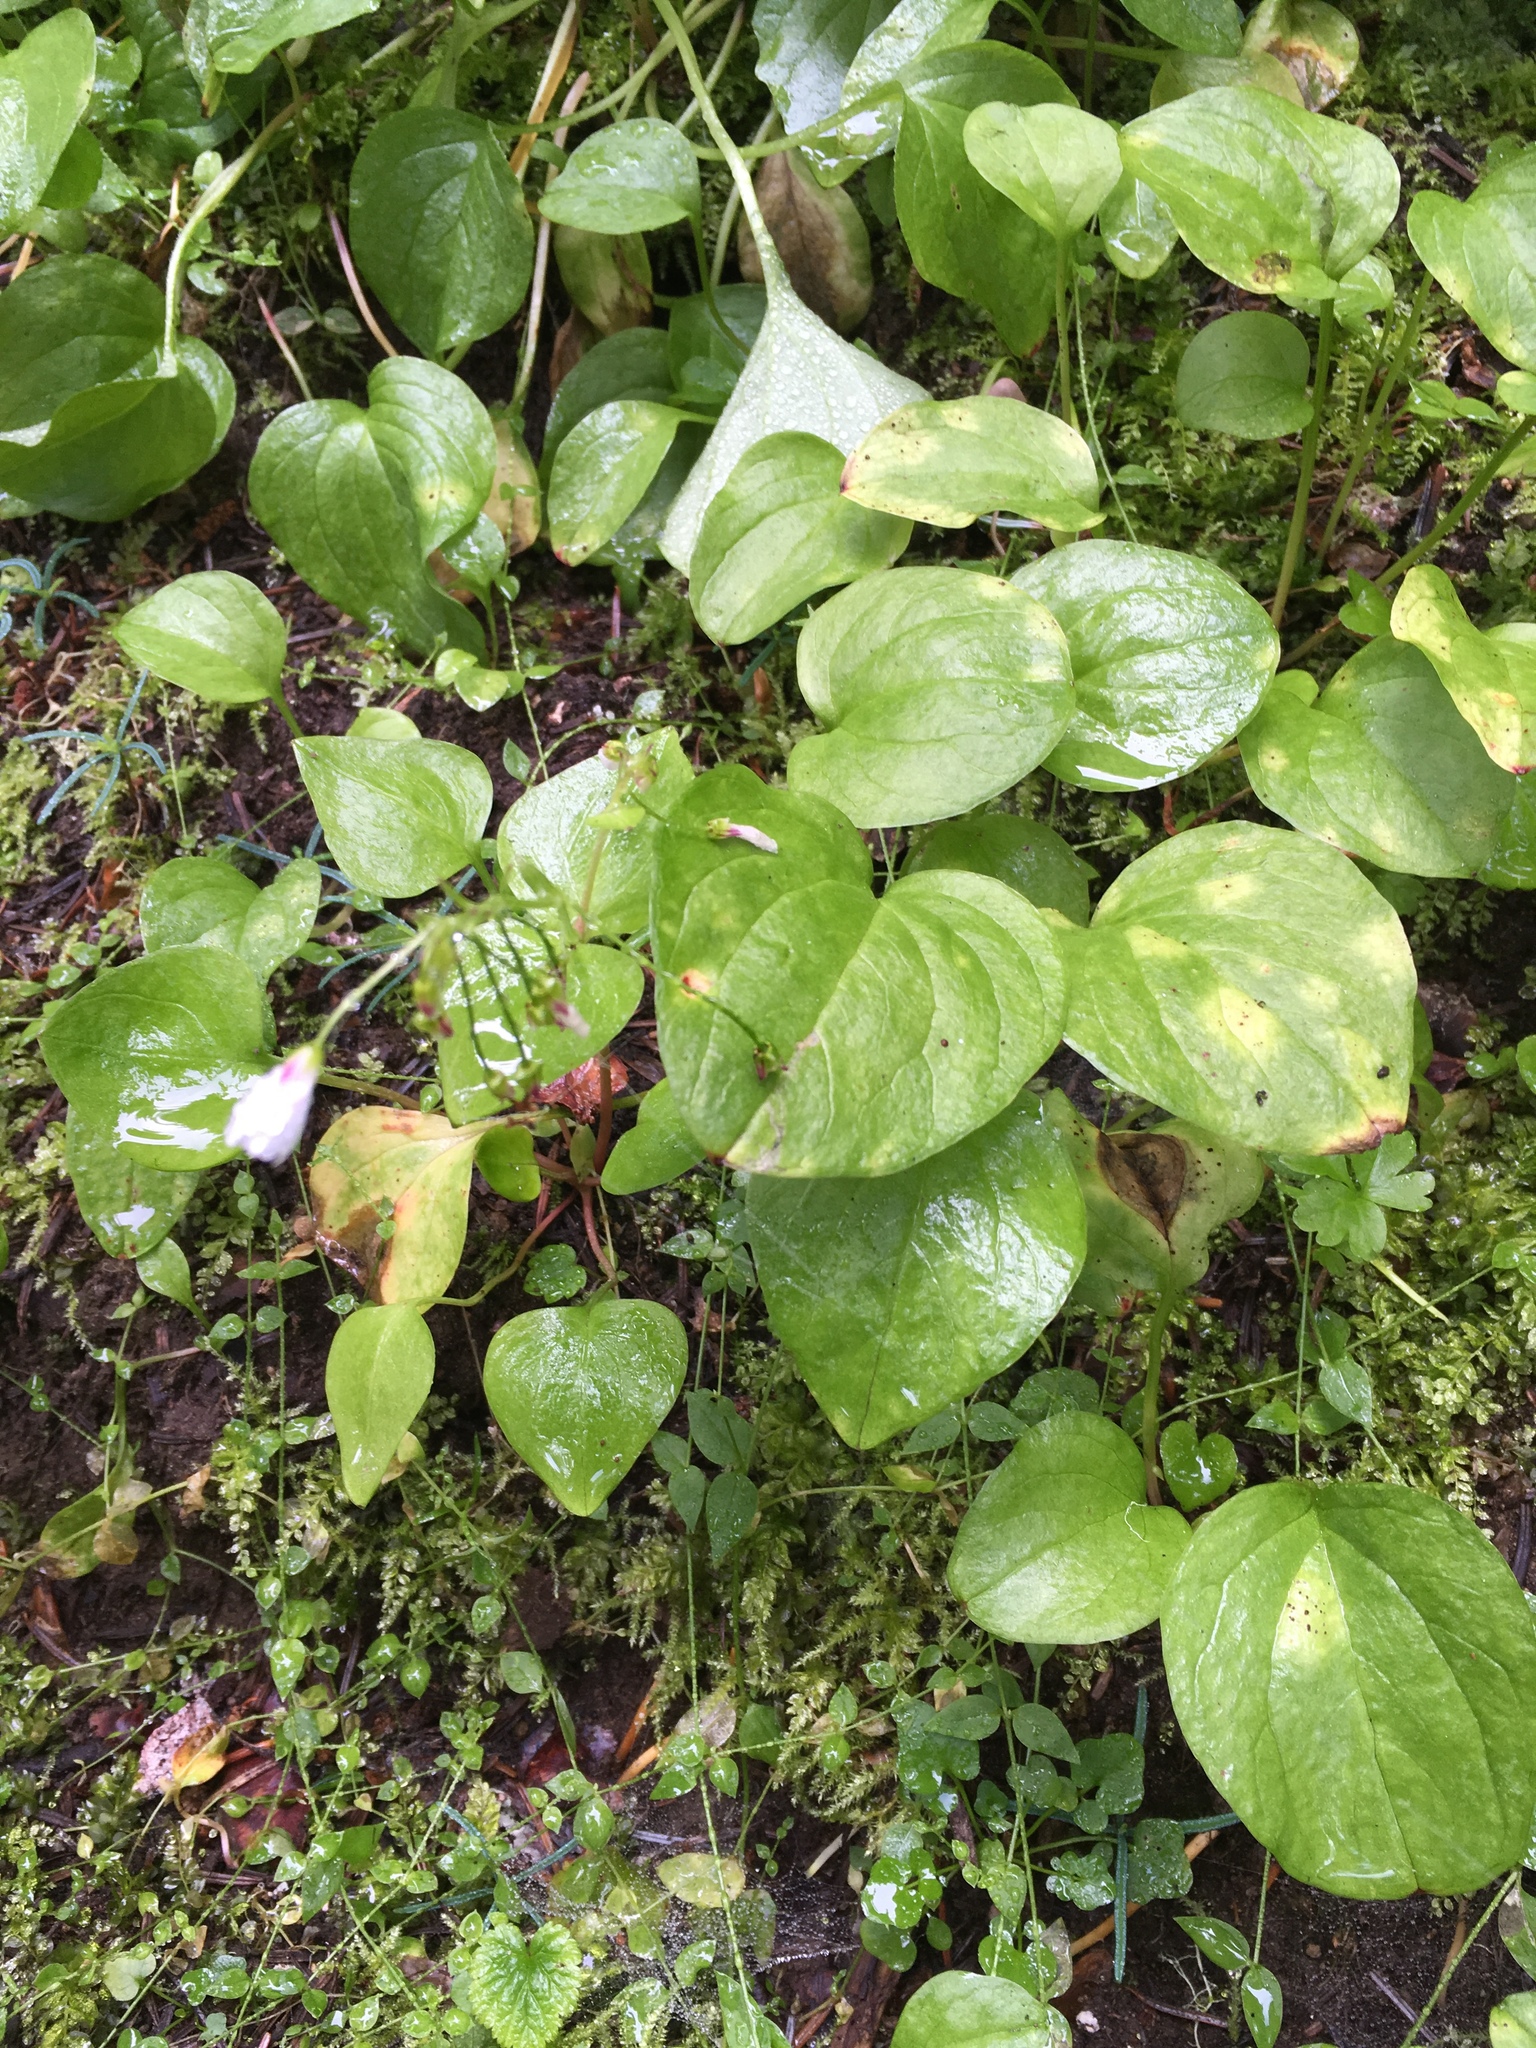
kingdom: Plantae
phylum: Tracheophyta
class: Magnoliopsida
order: Caryophyllales
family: Montiaceae
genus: Claytonia
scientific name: Claytonia cordifolia
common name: Broad-leaved spring beauty
